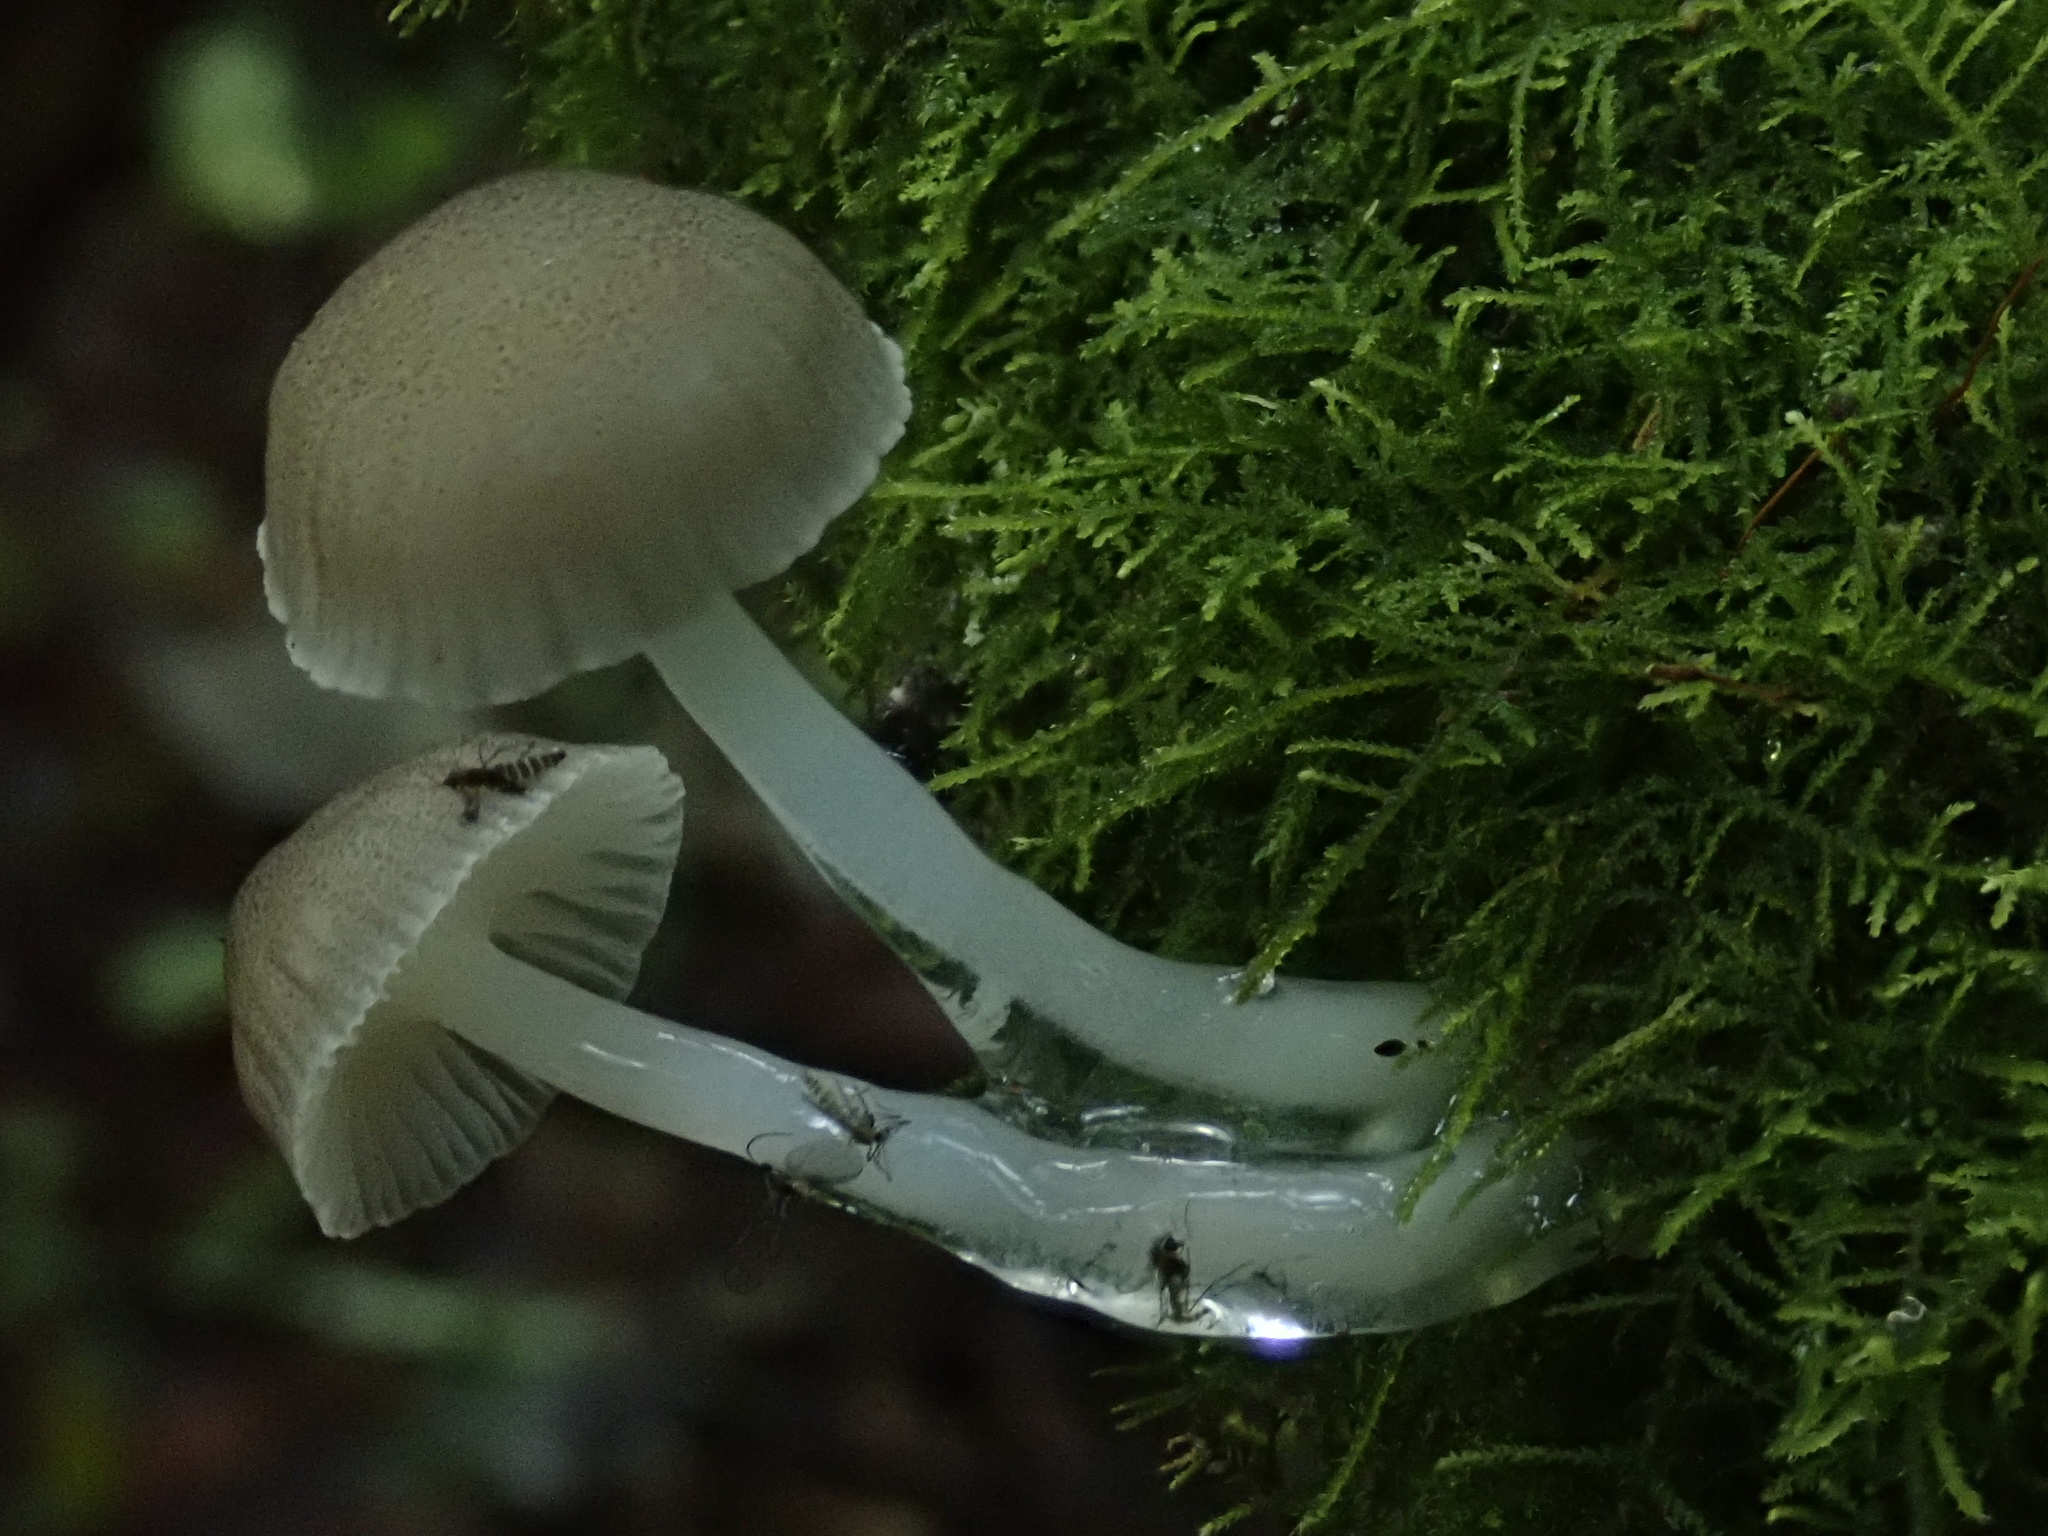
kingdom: Fungi
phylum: Basidiomycota
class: Agaricomycetes
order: Agaricales
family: Mycenaceae
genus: Roridomyces
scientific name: Roridomyces austrororidus
